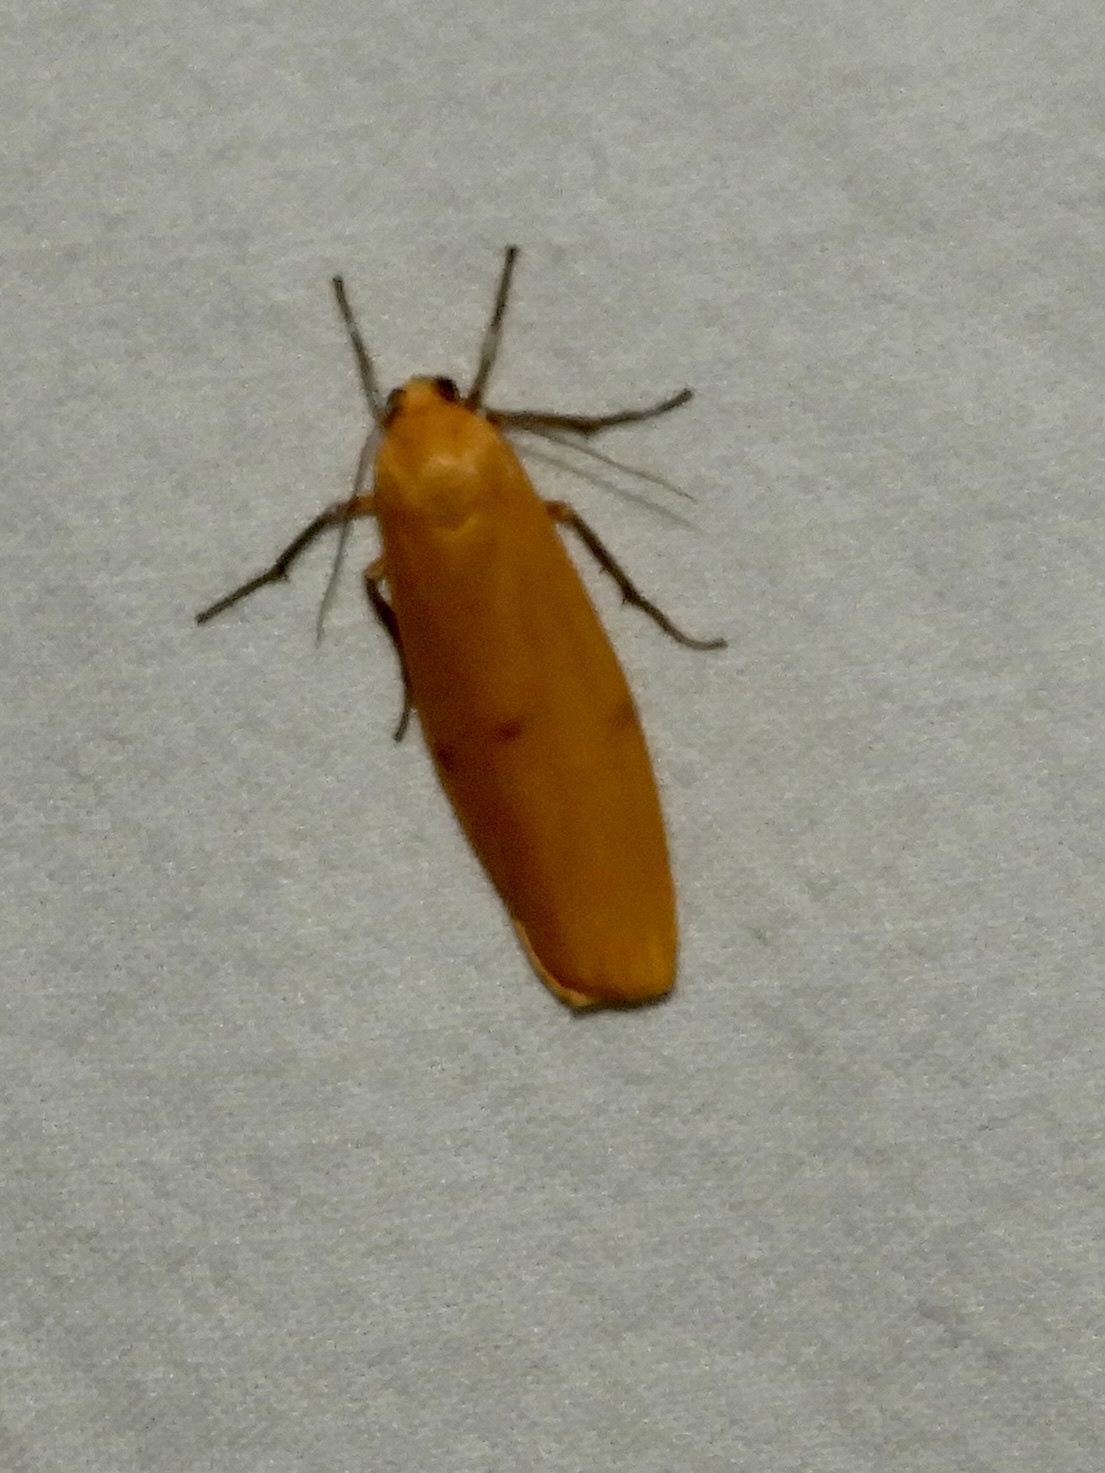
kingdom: Animalia
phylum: Arthropoda
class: Insecta
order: Lepidoptera
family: Erebidae
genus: Lithosia
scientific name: Lithosia quadra
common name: Four-spotted footman
